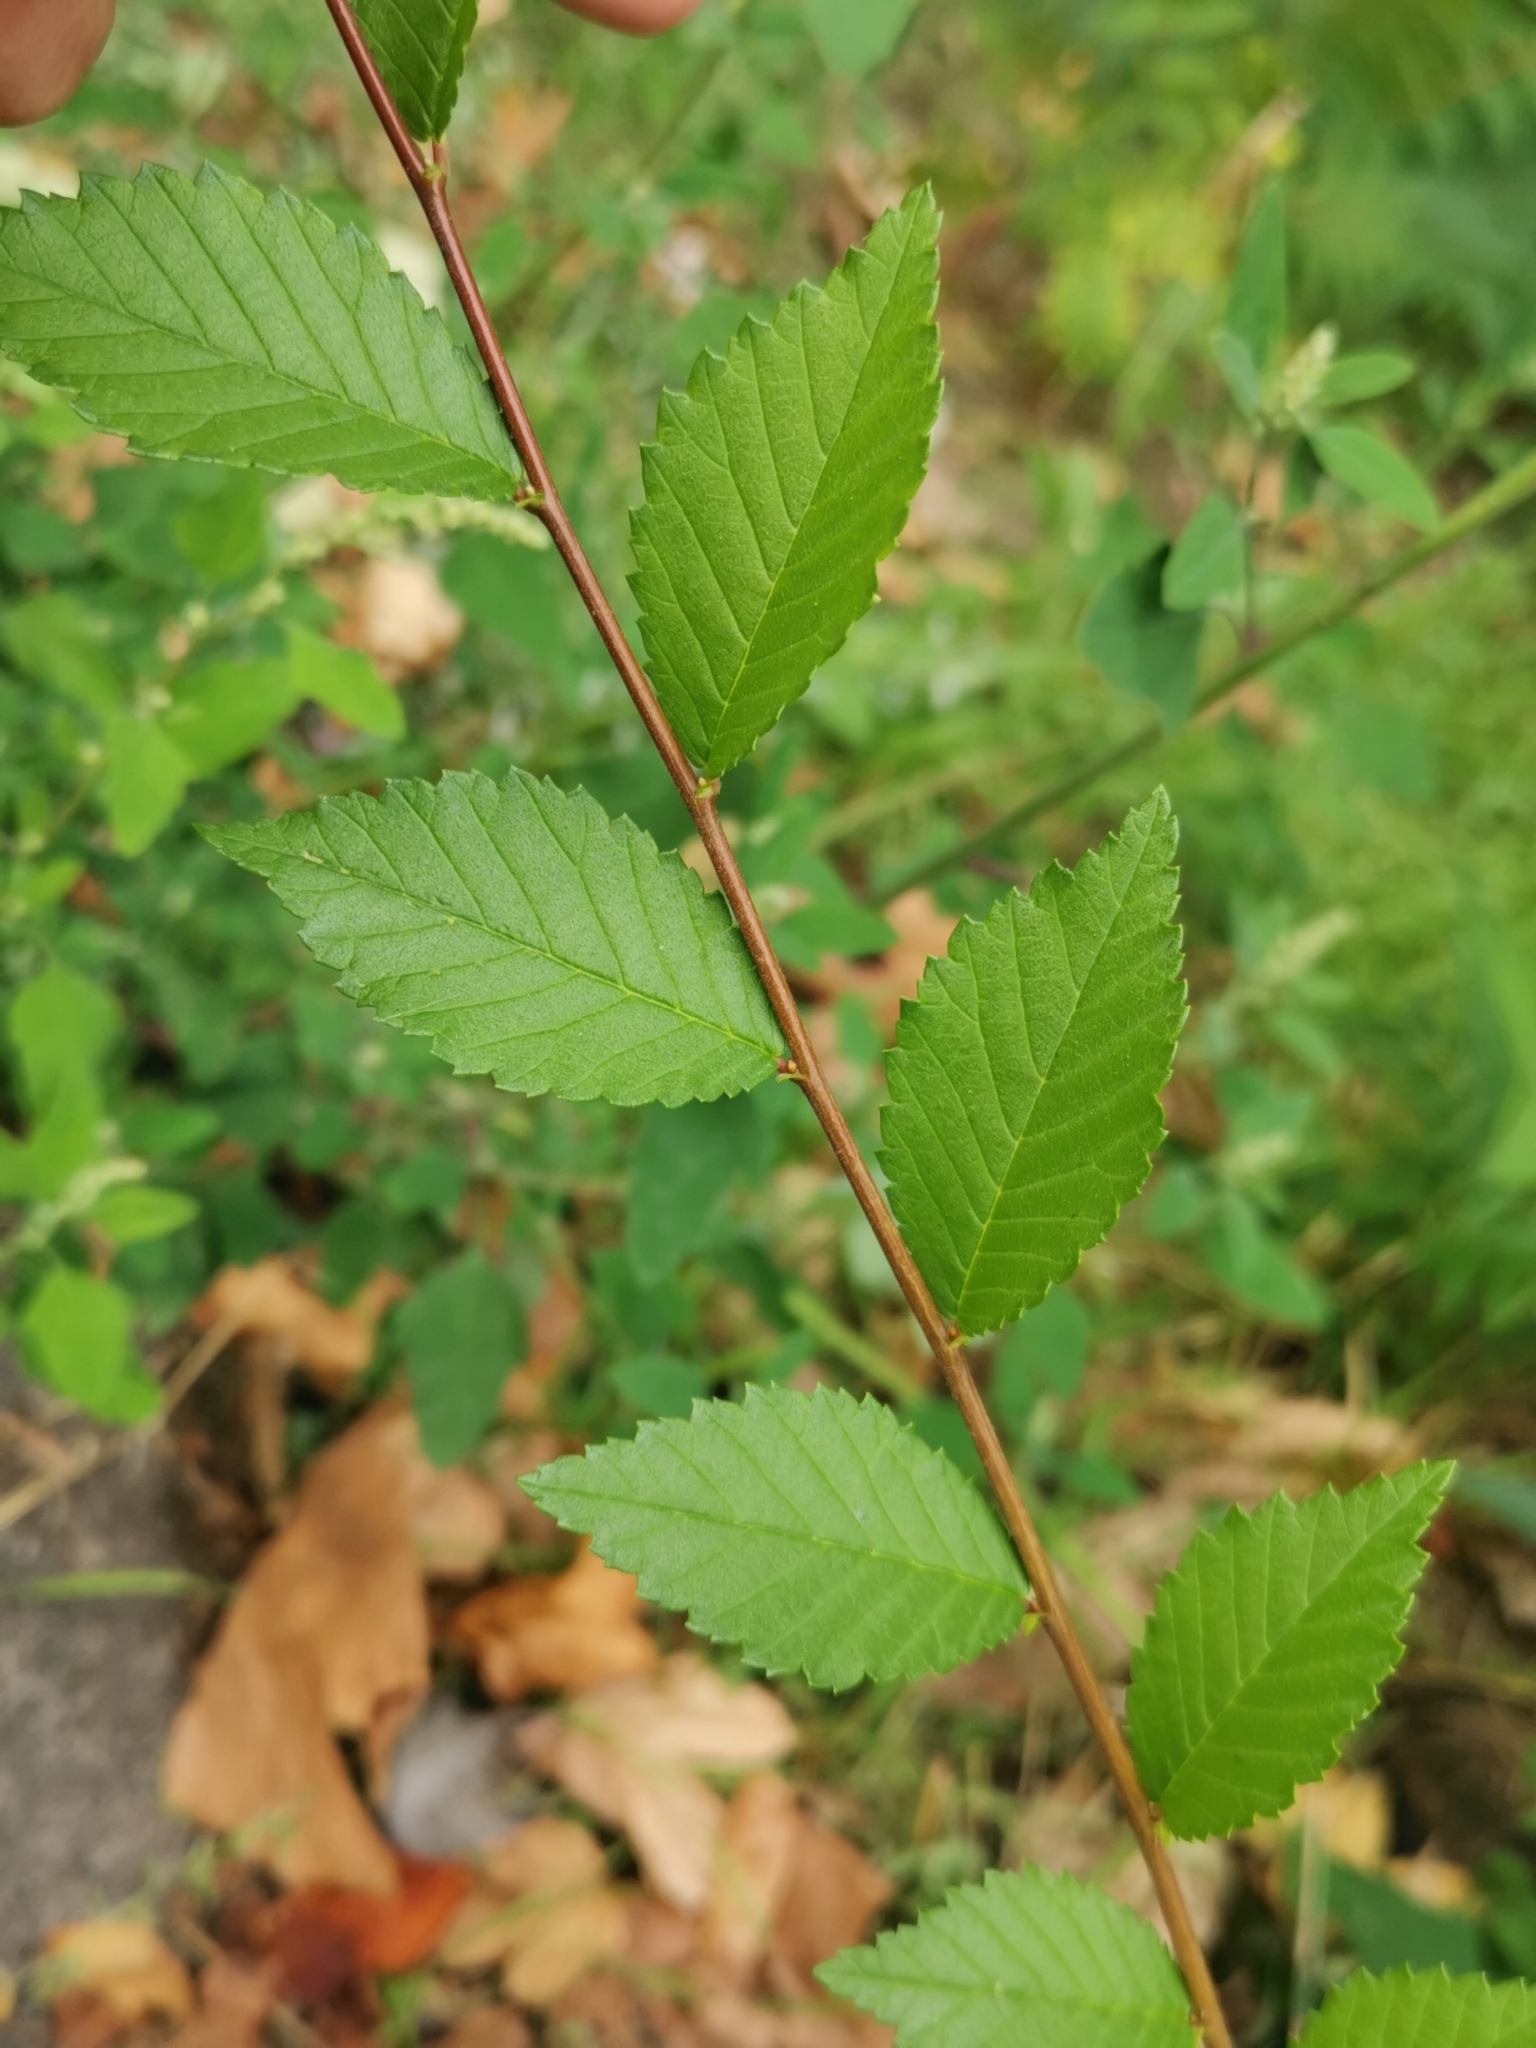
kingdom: Plantae
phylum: Tracheophyta
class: Magnoliopsida
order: Rosales
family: Ulmaceae
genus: Ulmus
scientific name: Ulmus minor
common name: Small-leaved elm
